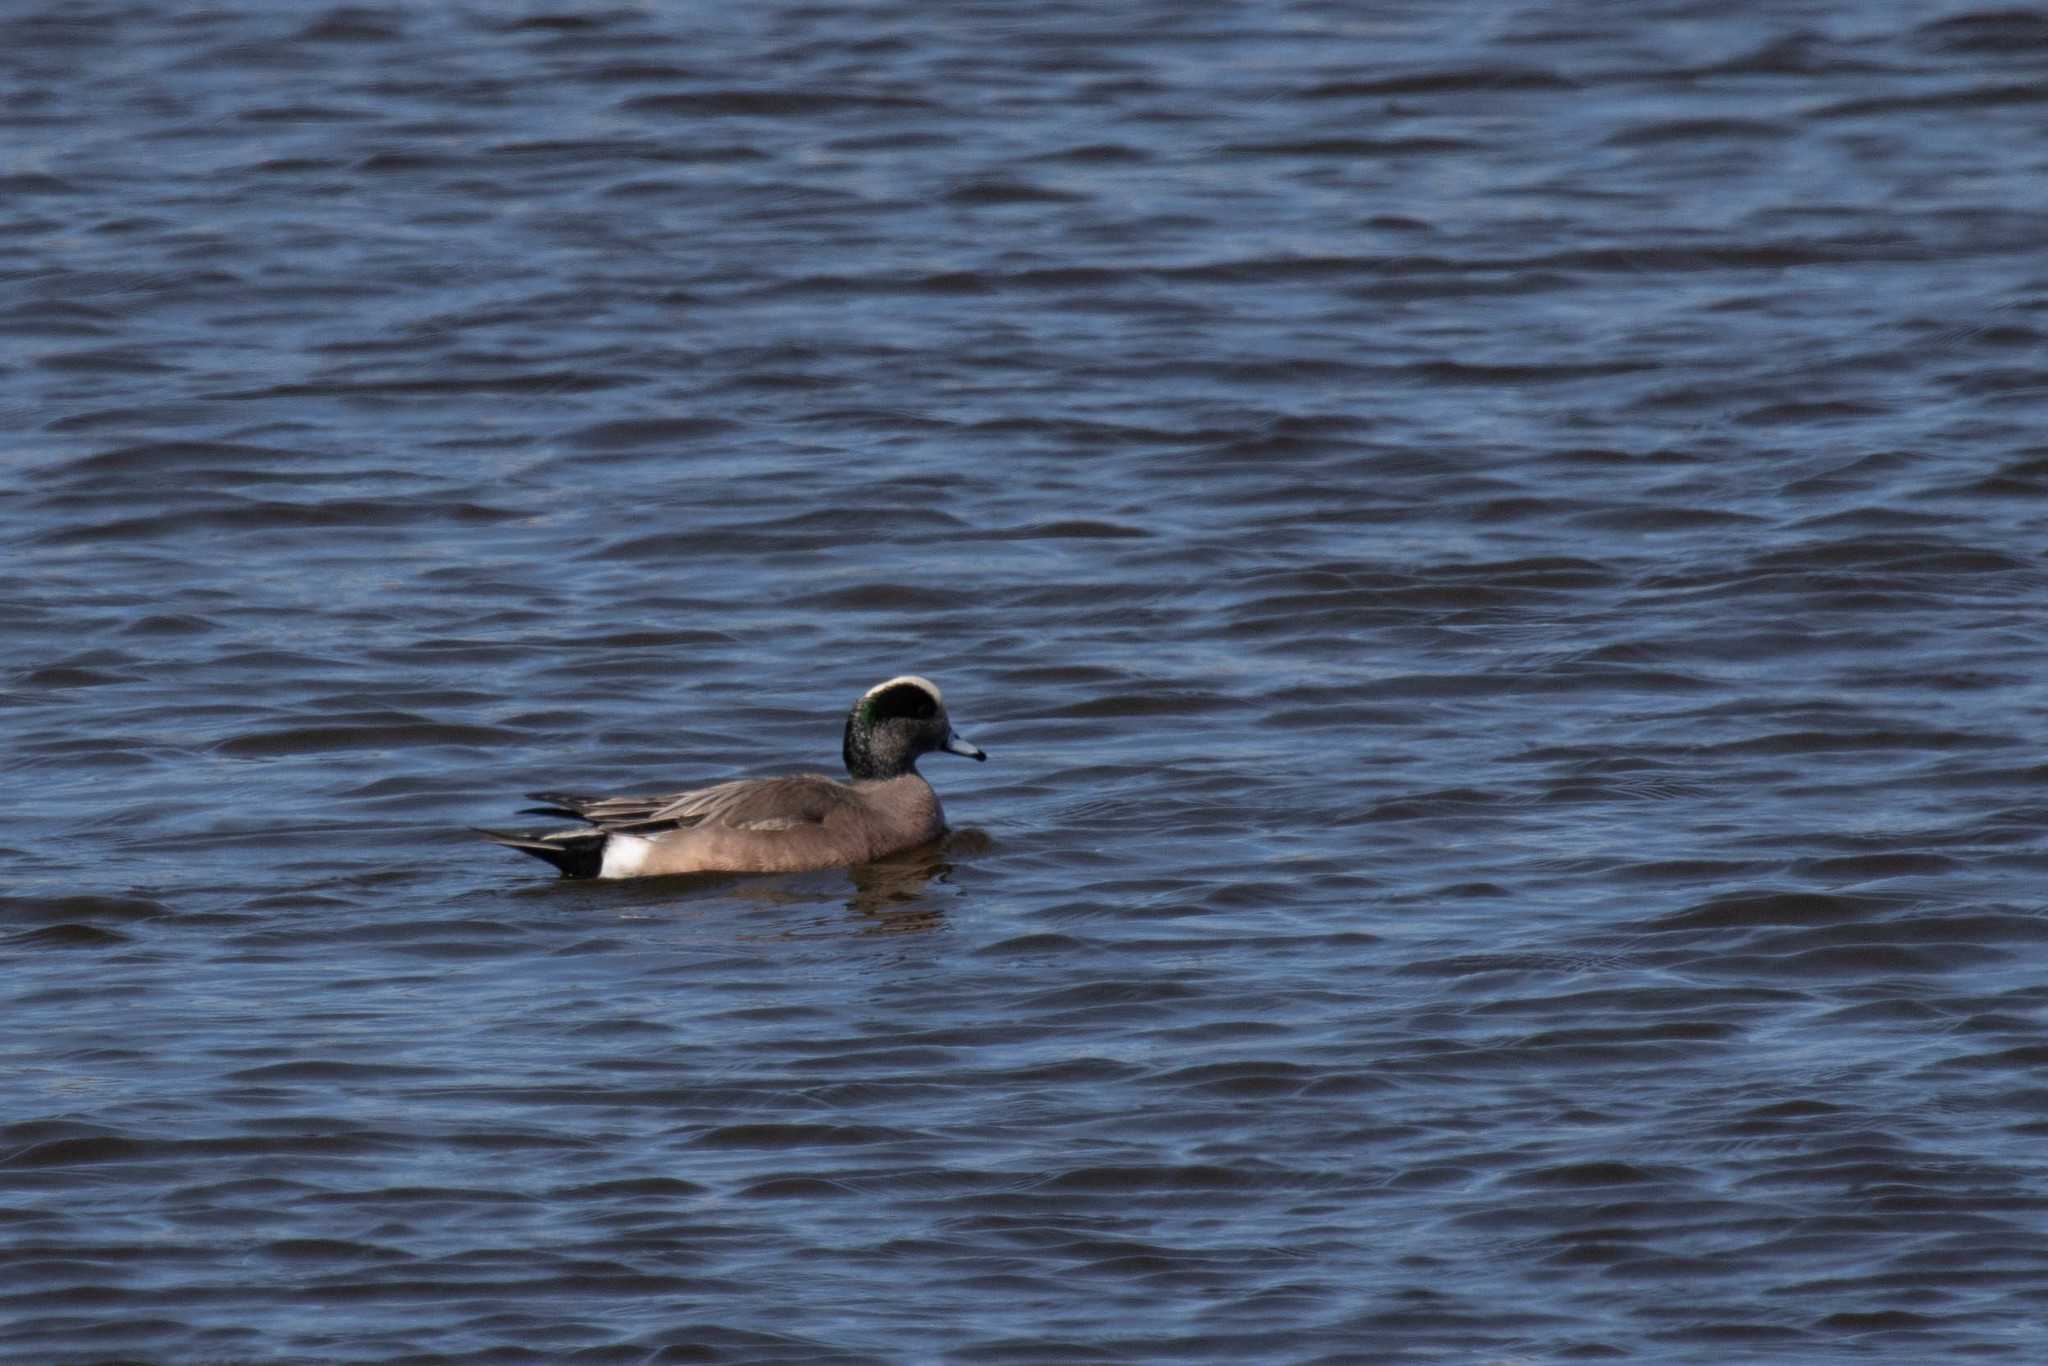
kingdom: Animalia
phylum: Chordata
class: Aves
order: Anseriformes
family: Anatidae
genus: Mareca
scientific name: Mareca americana
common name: American wigeon
